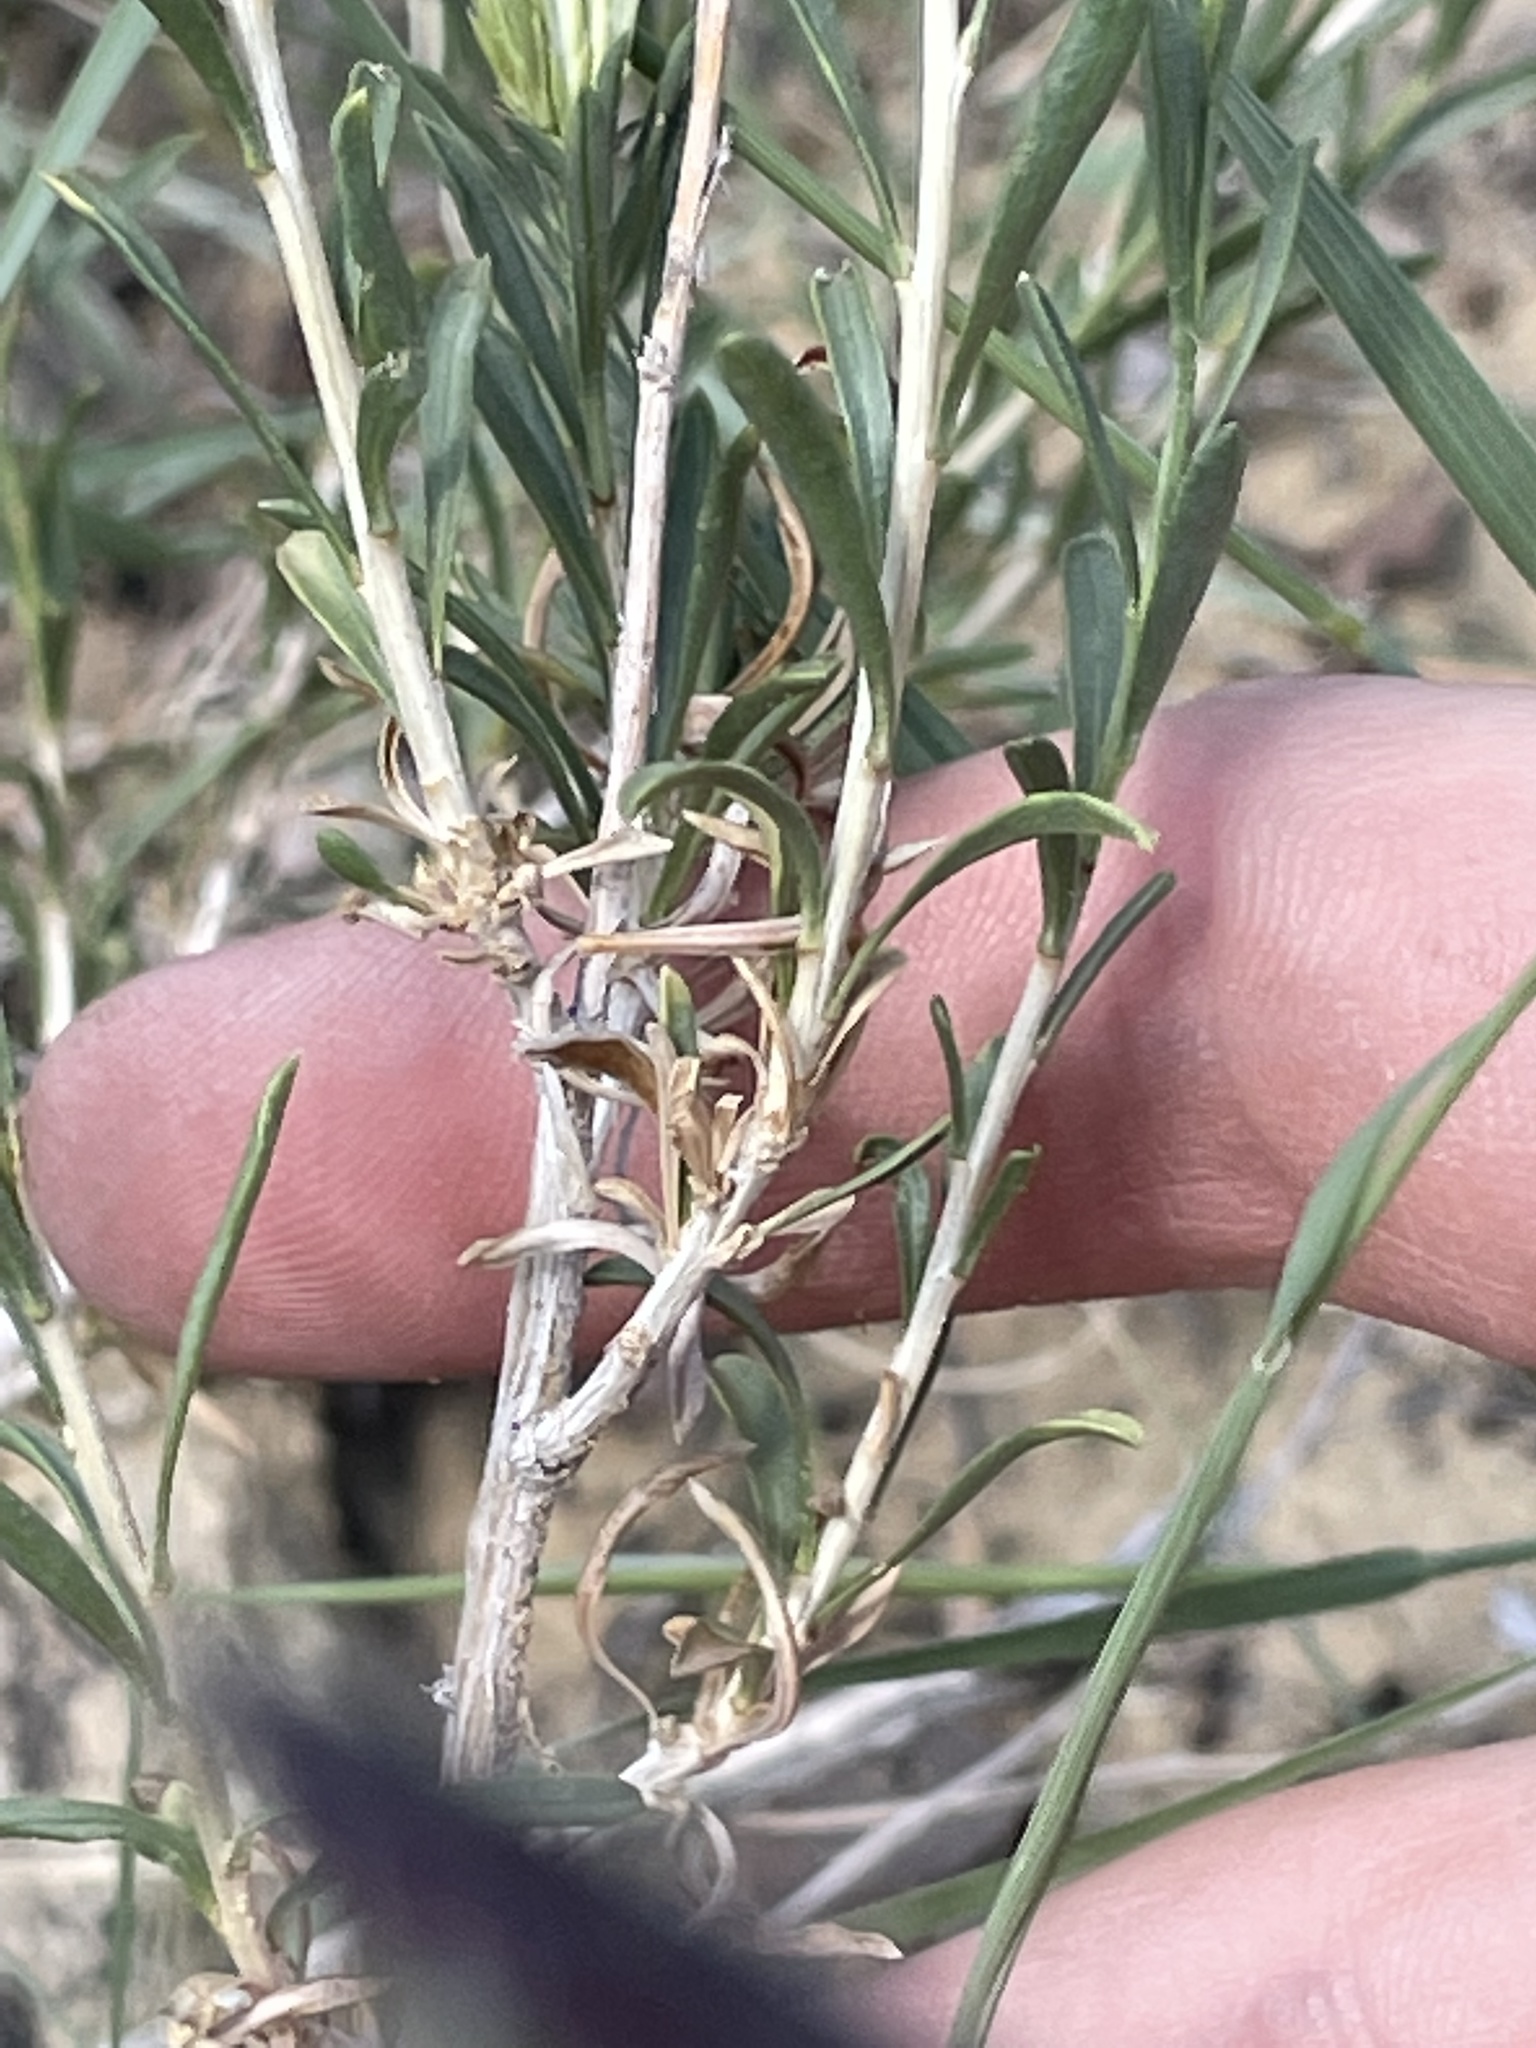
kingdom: Plantae
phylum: Tracheophyta
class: Magnoliopsida
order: Asterales
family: Asteraceae
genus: Chrysothamnus
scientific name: Chrysothamnus depressus
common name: Long-flower rabbitbrush
